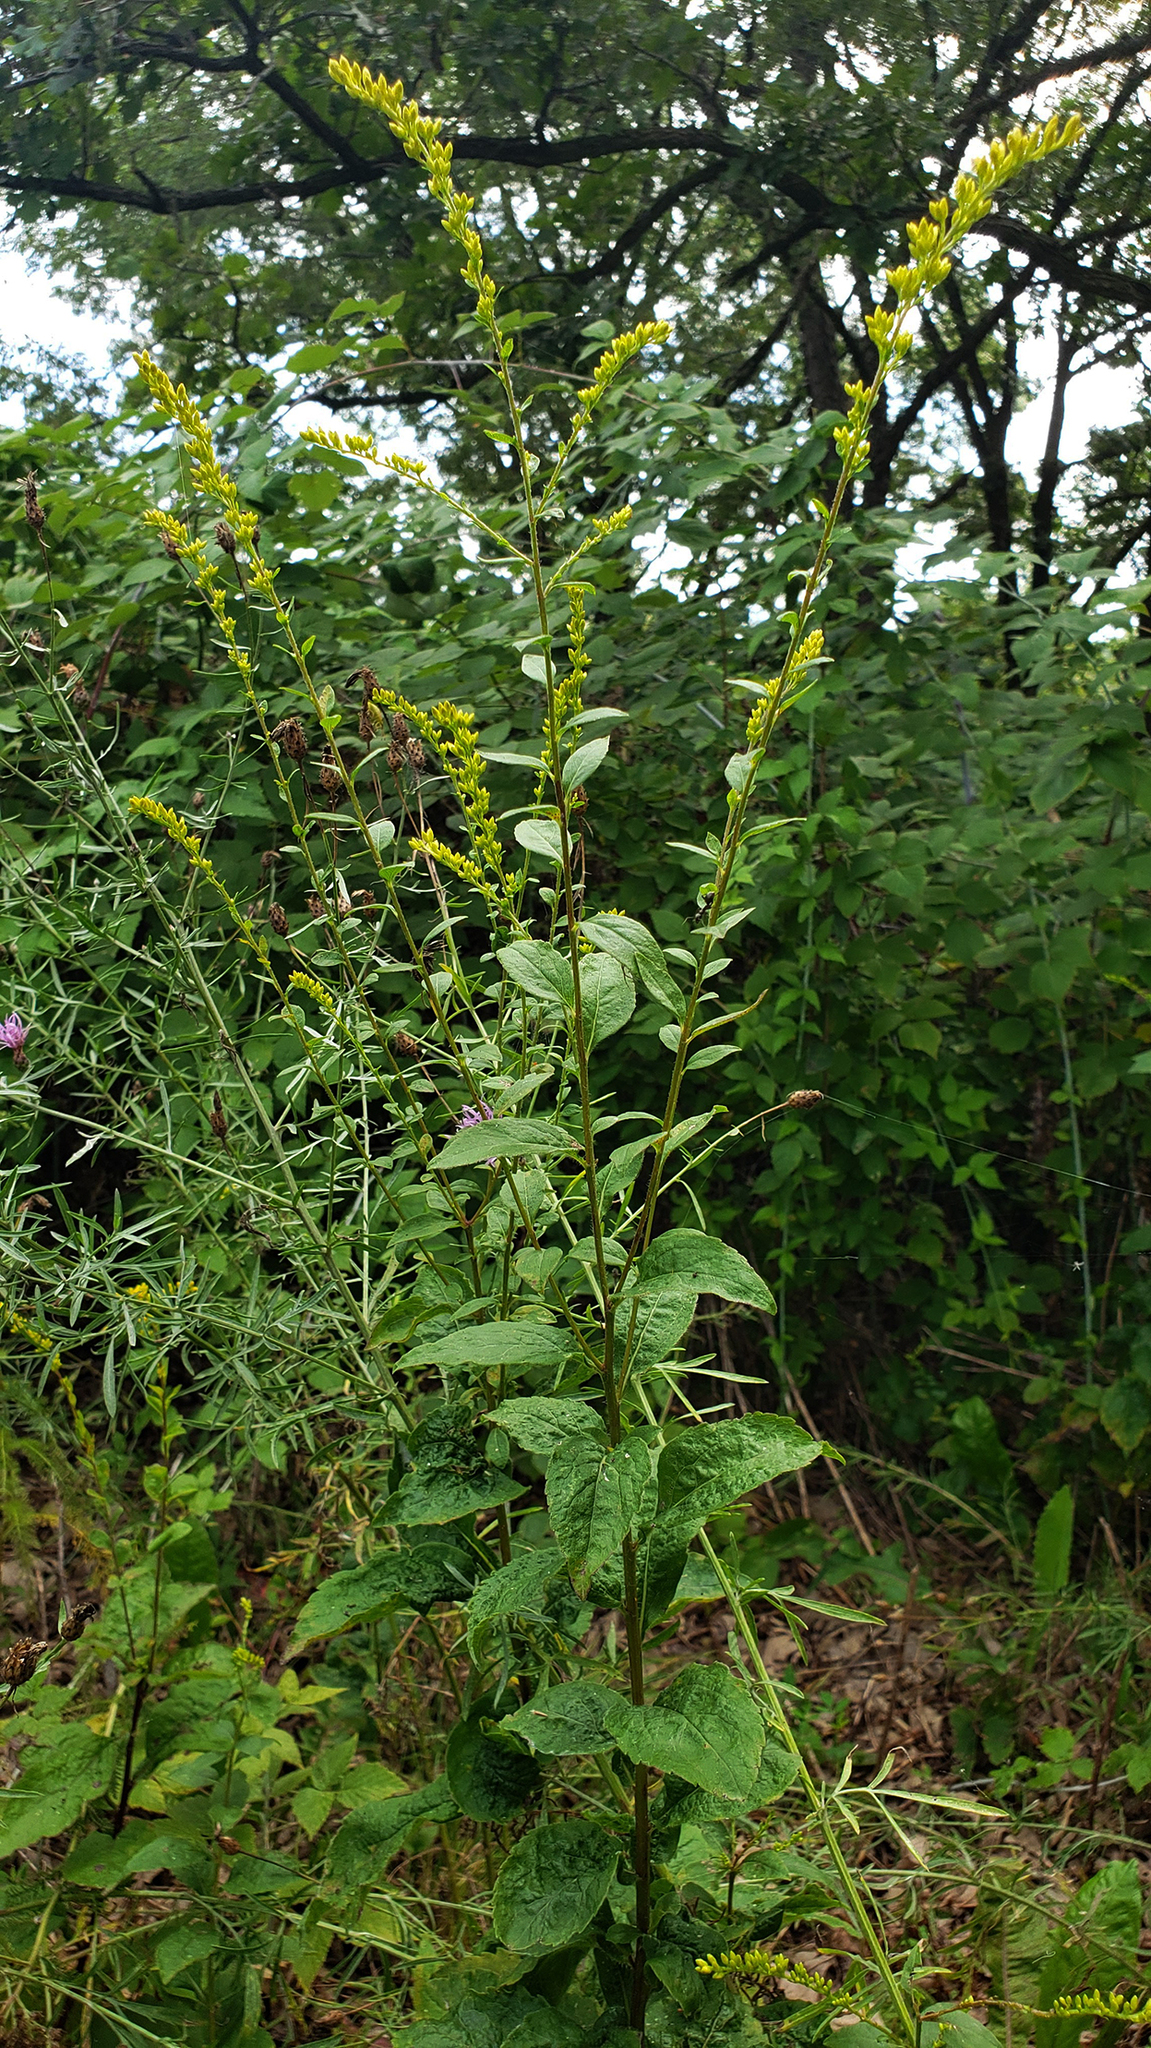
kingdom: Plantae
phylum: Tracheophyta
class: Magnoliopsida
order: Asterales
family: Asteraceae
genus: Solidago
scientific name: Solidago ulmifolia
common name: Elm-leaf goldenrod
